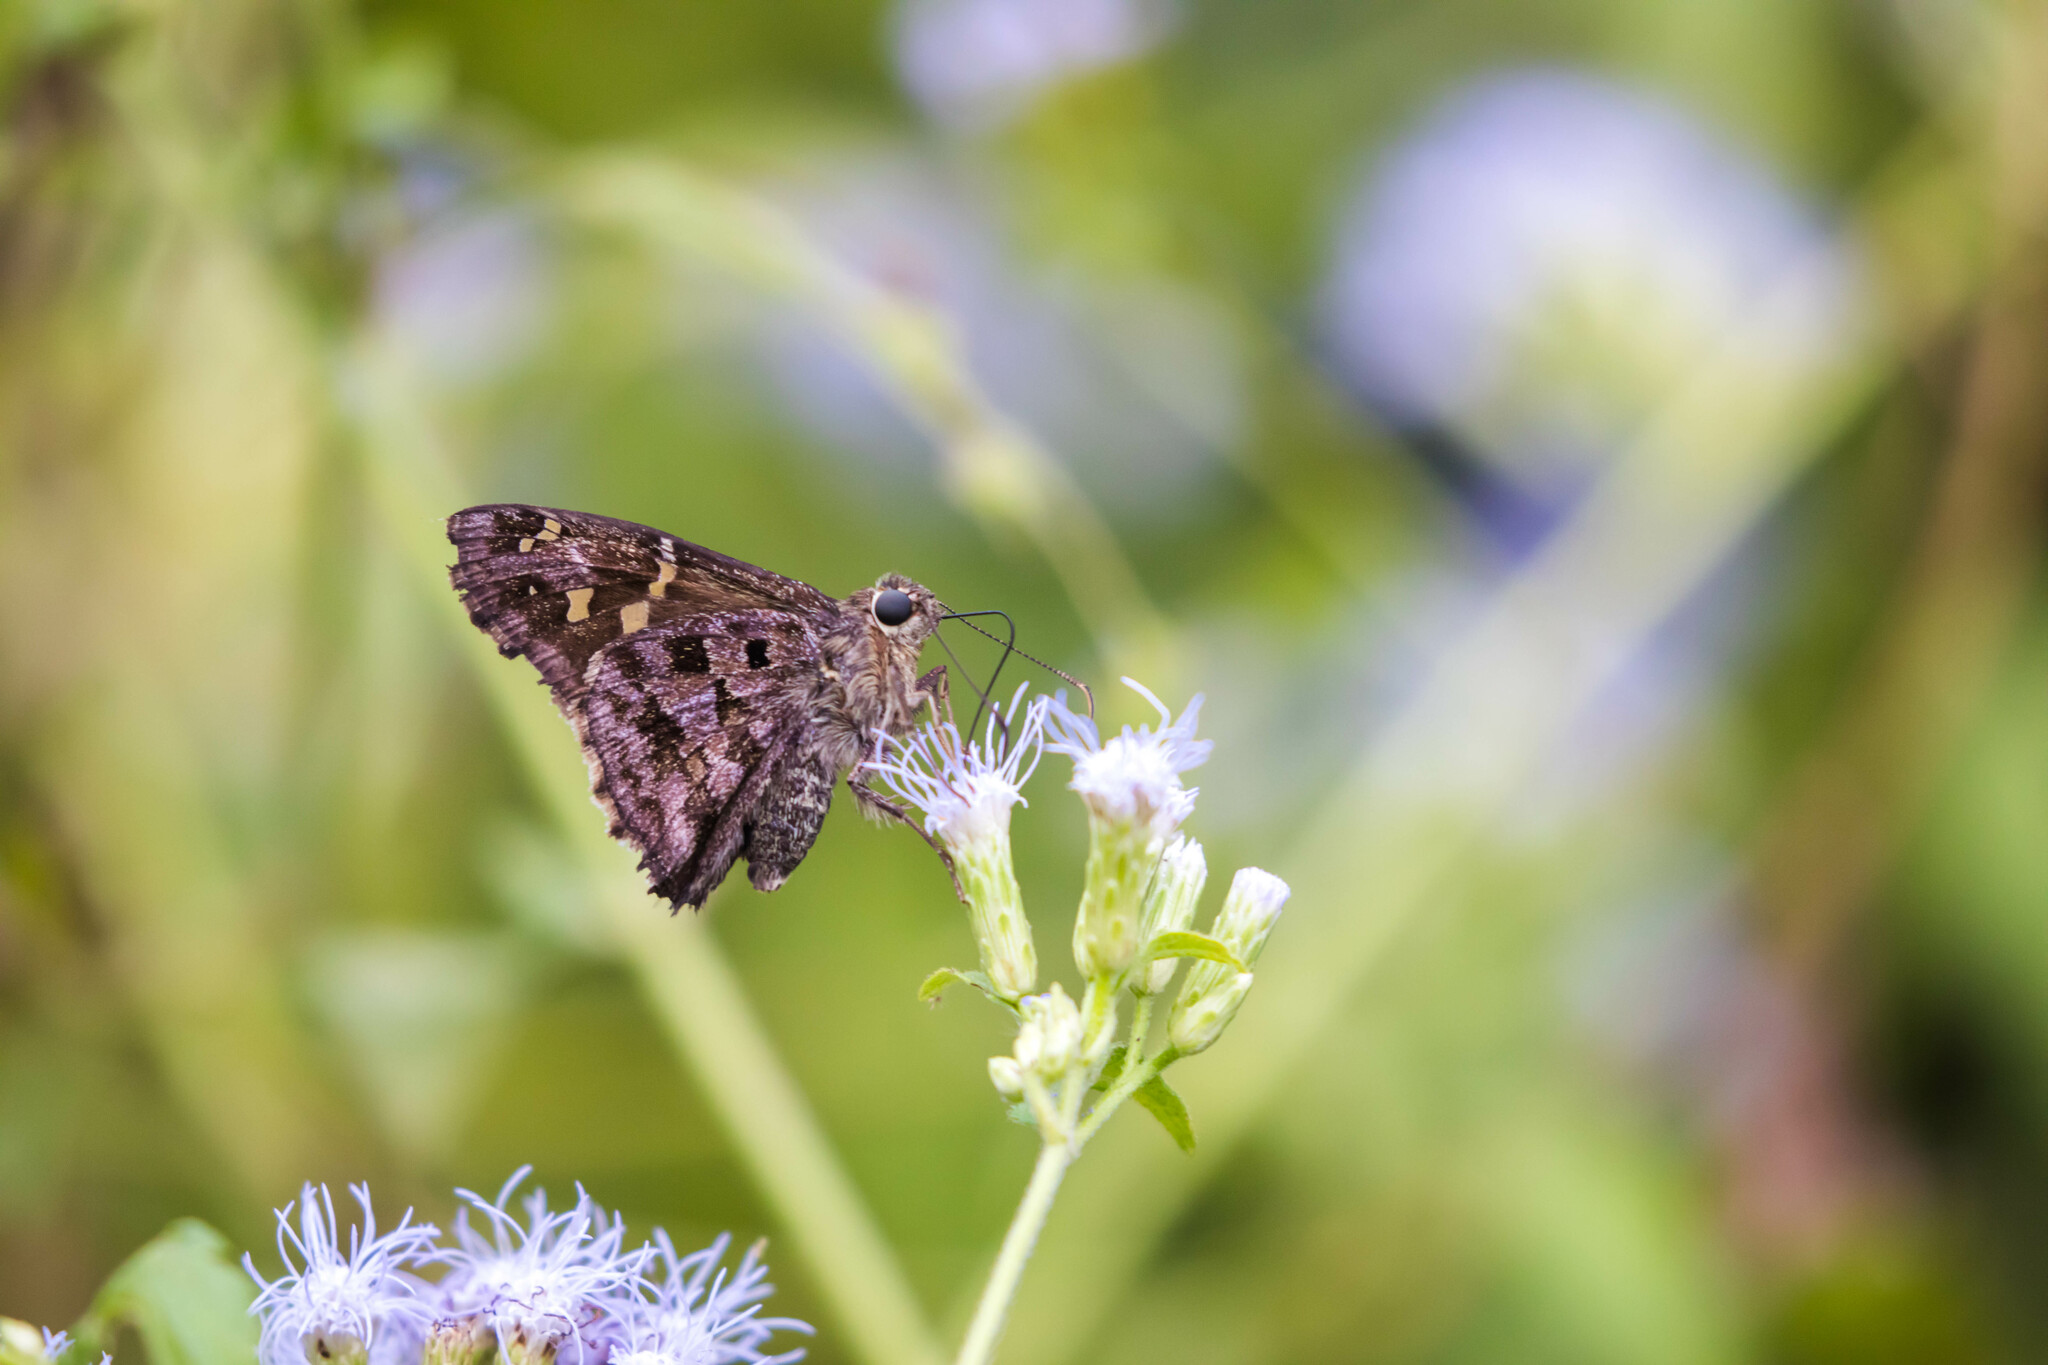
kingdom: Animalia
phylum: Arthropoda
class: Insecta
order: Lepidoptera
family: Hesperiidae
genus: Thorybes
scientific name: Thorybes
